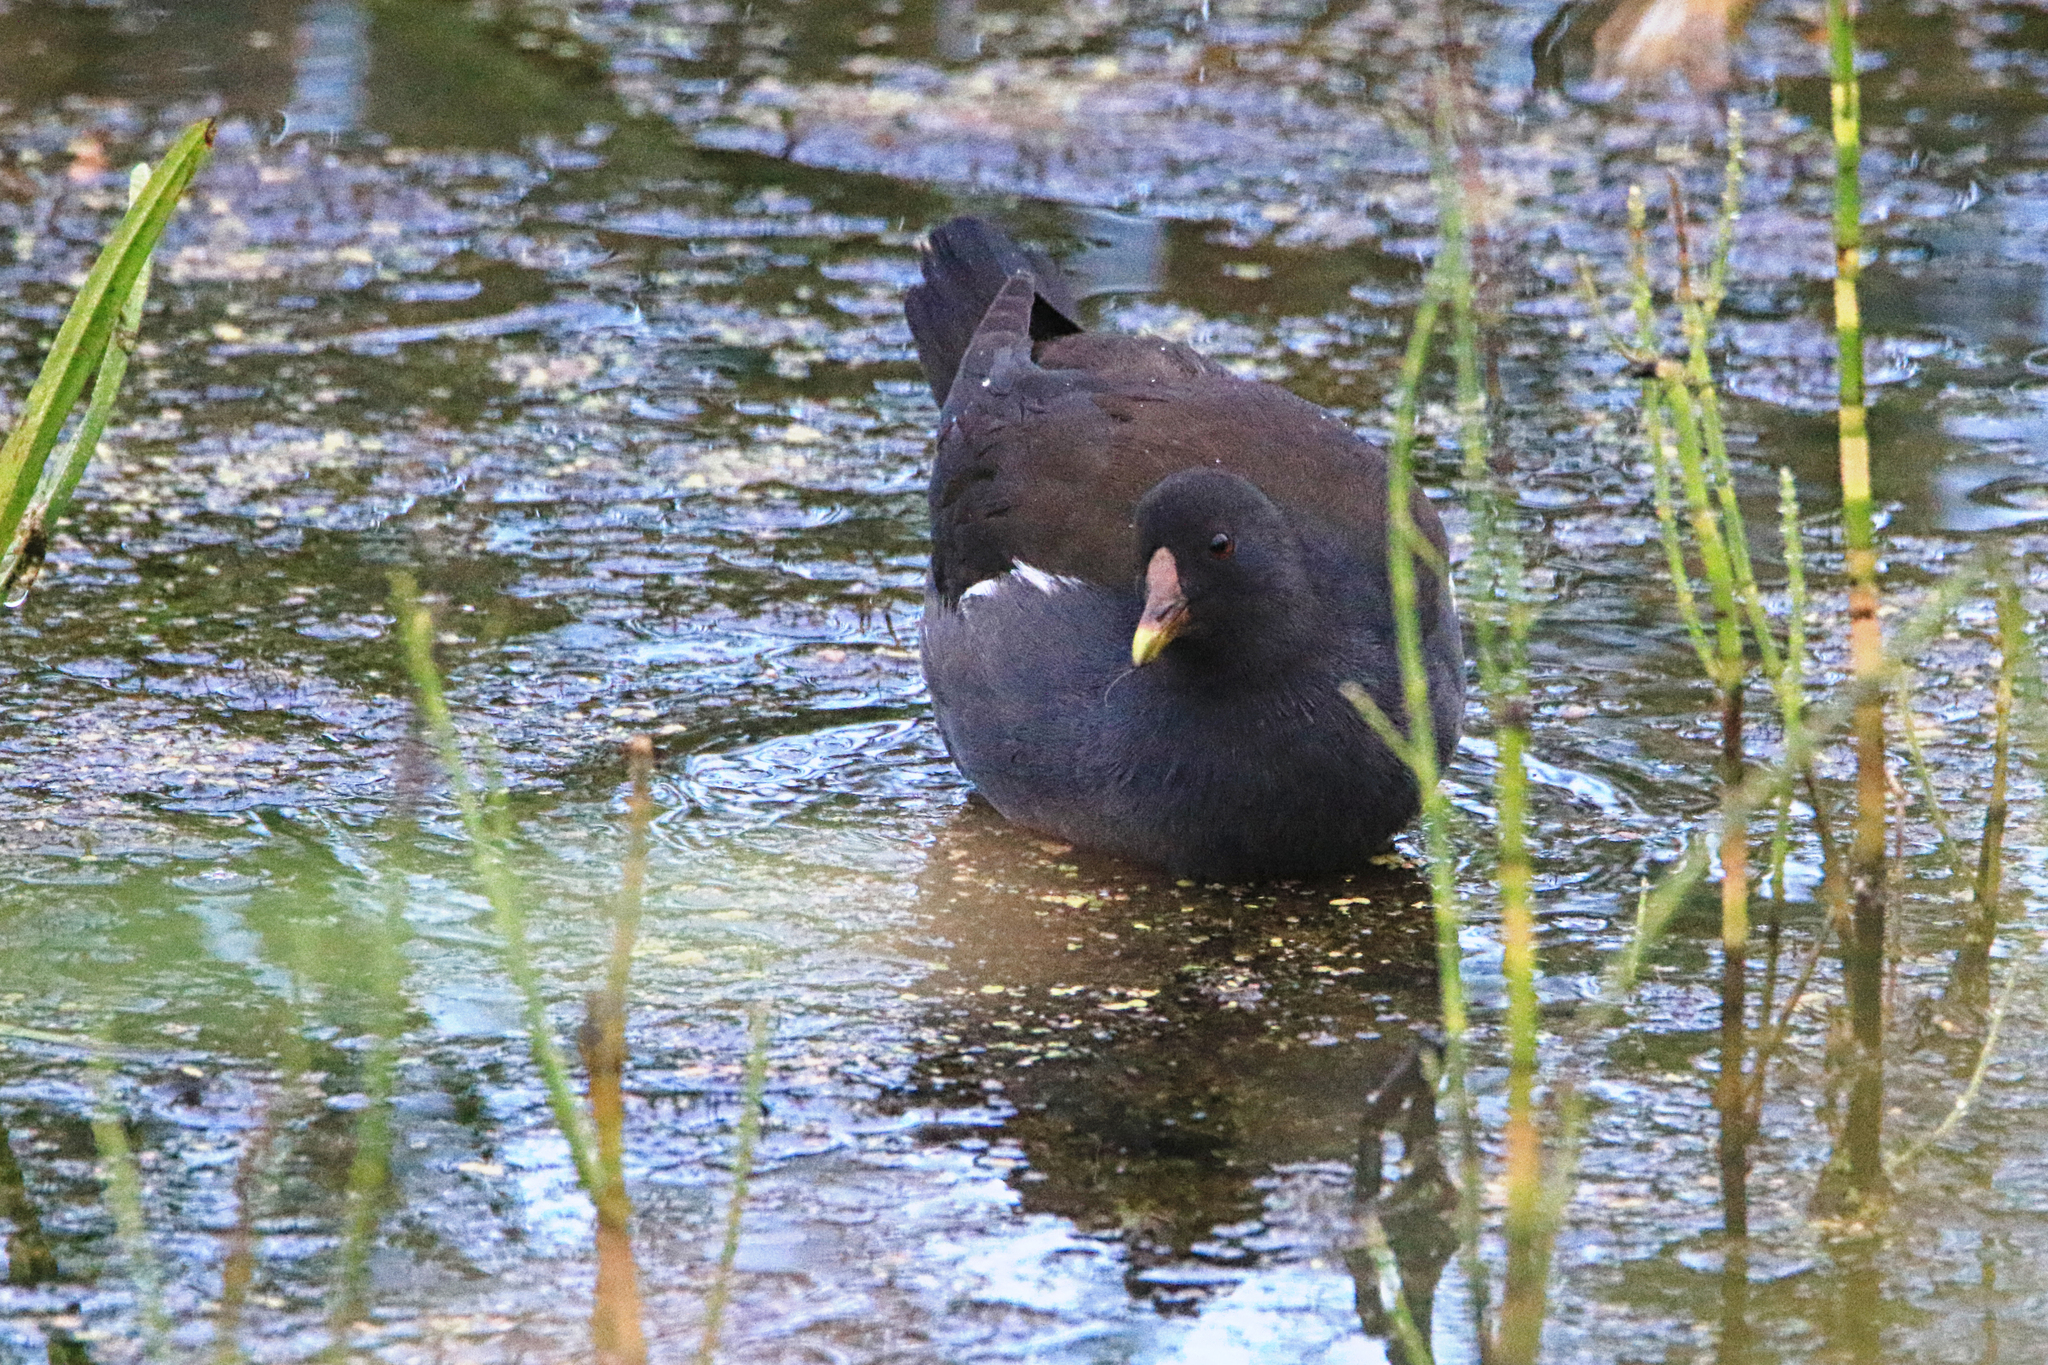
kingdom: Animalia
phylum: Chordata
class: Aves
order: Gruiformes
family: Rallidae
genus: Gallinula
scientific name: Gallinula chloropus
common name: Common moorhen
